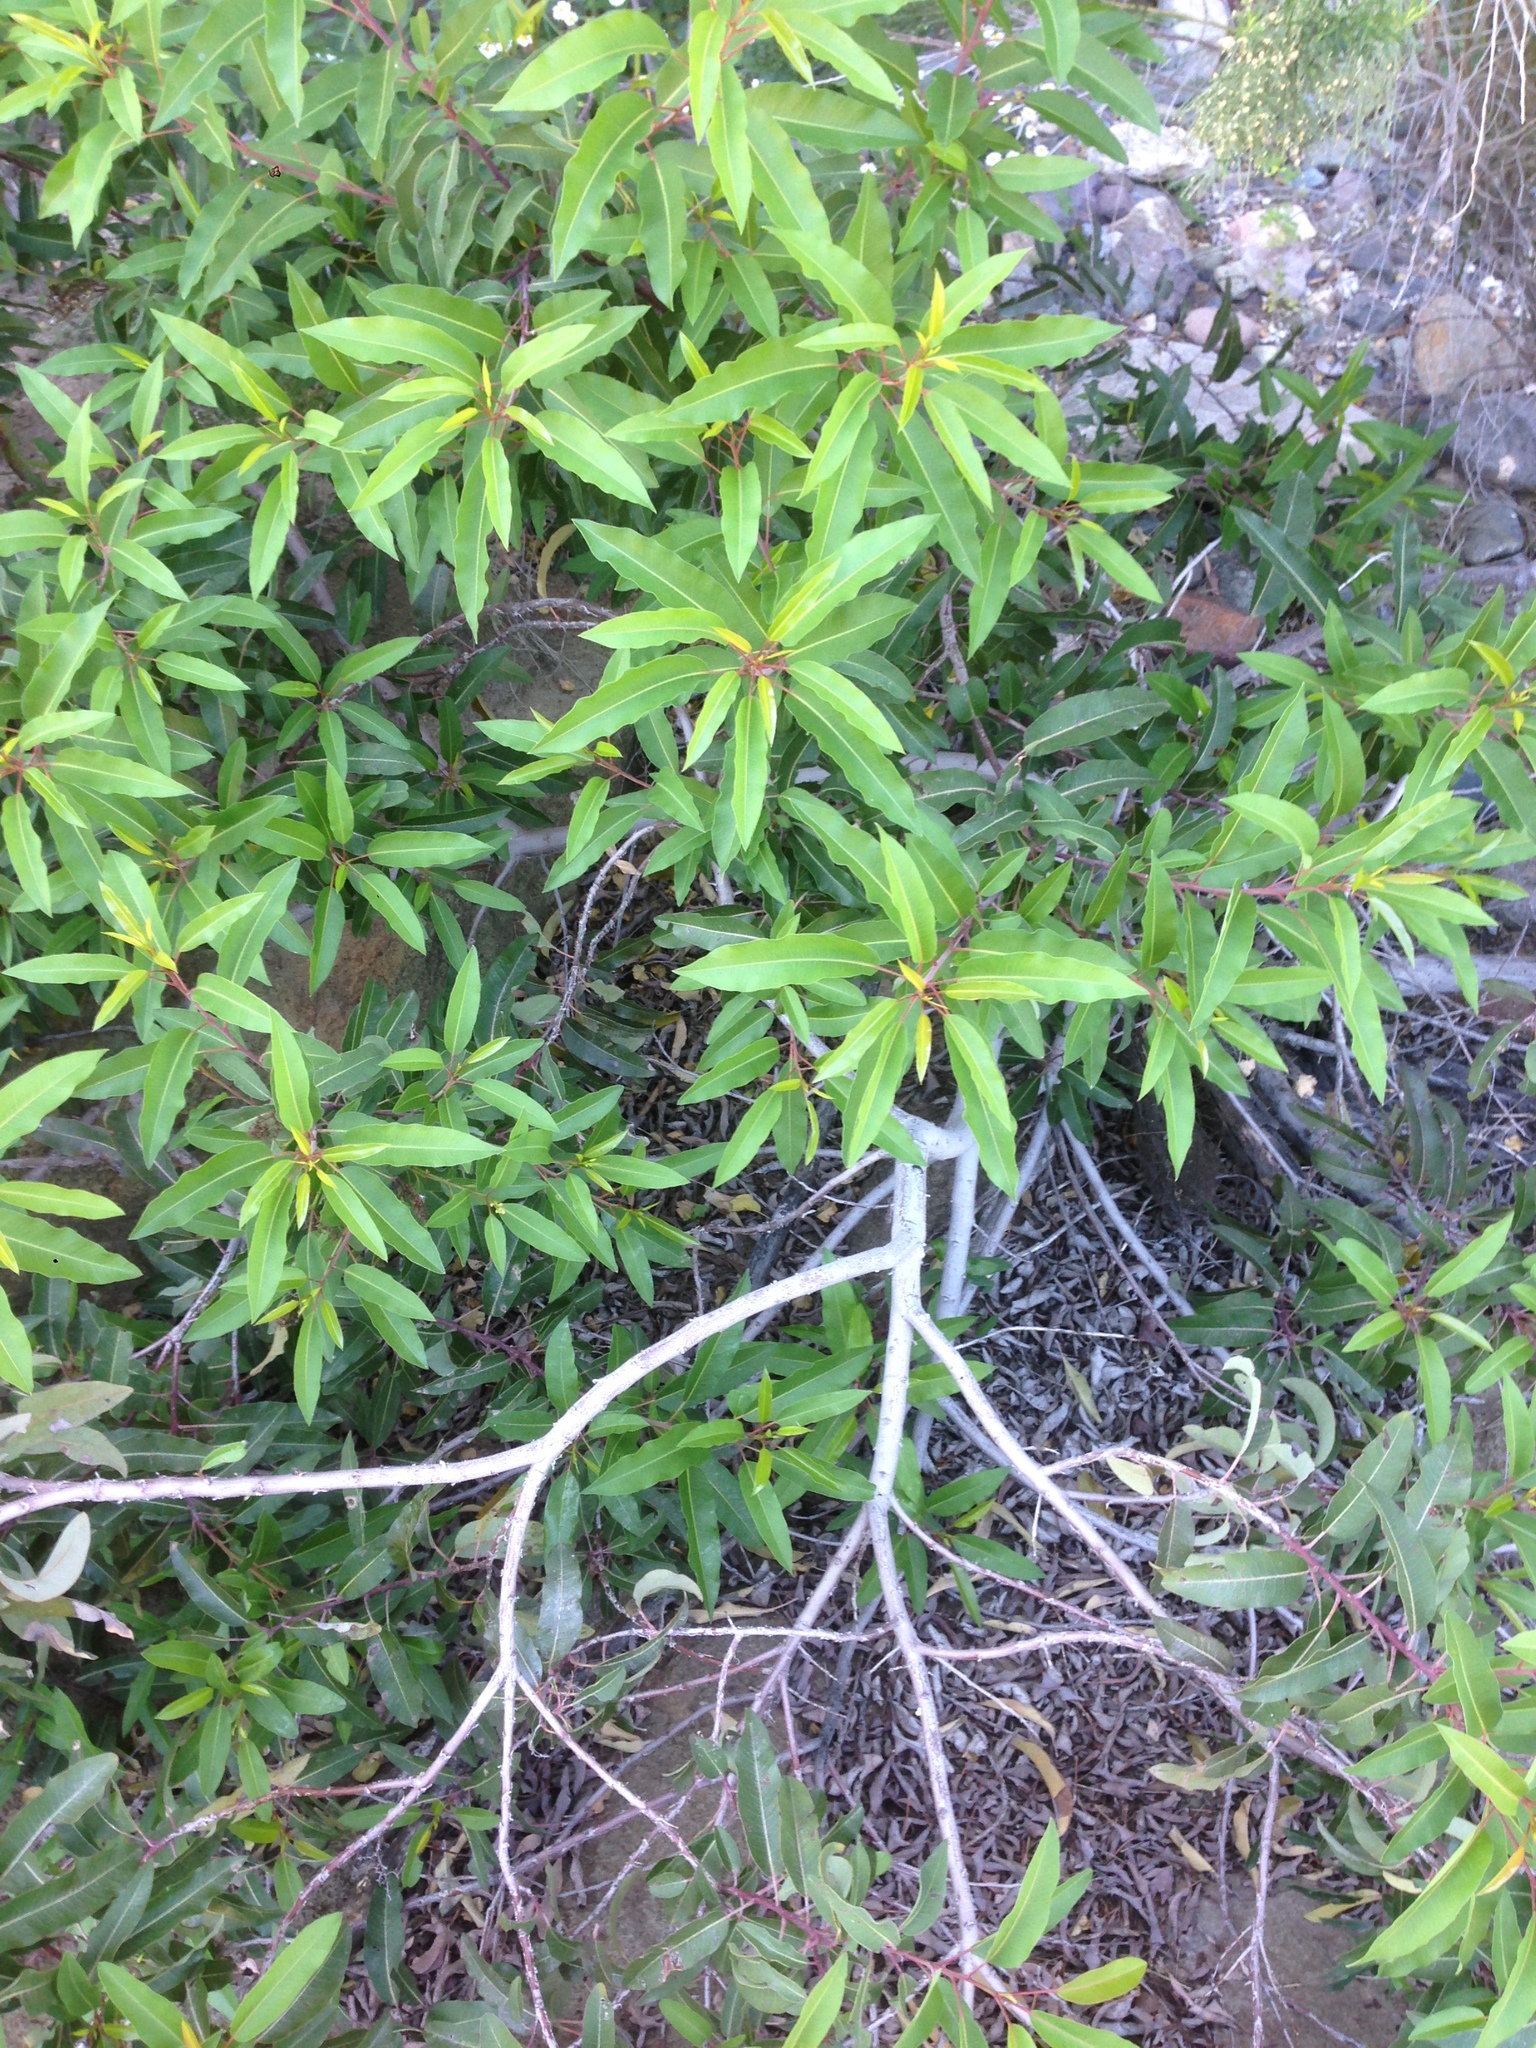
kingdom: Plantae
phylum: Tracheophyta
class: Magnoliopsida
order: Sapindales
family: Anacardiaceae
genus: Malosma
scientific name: Malosma laurina
